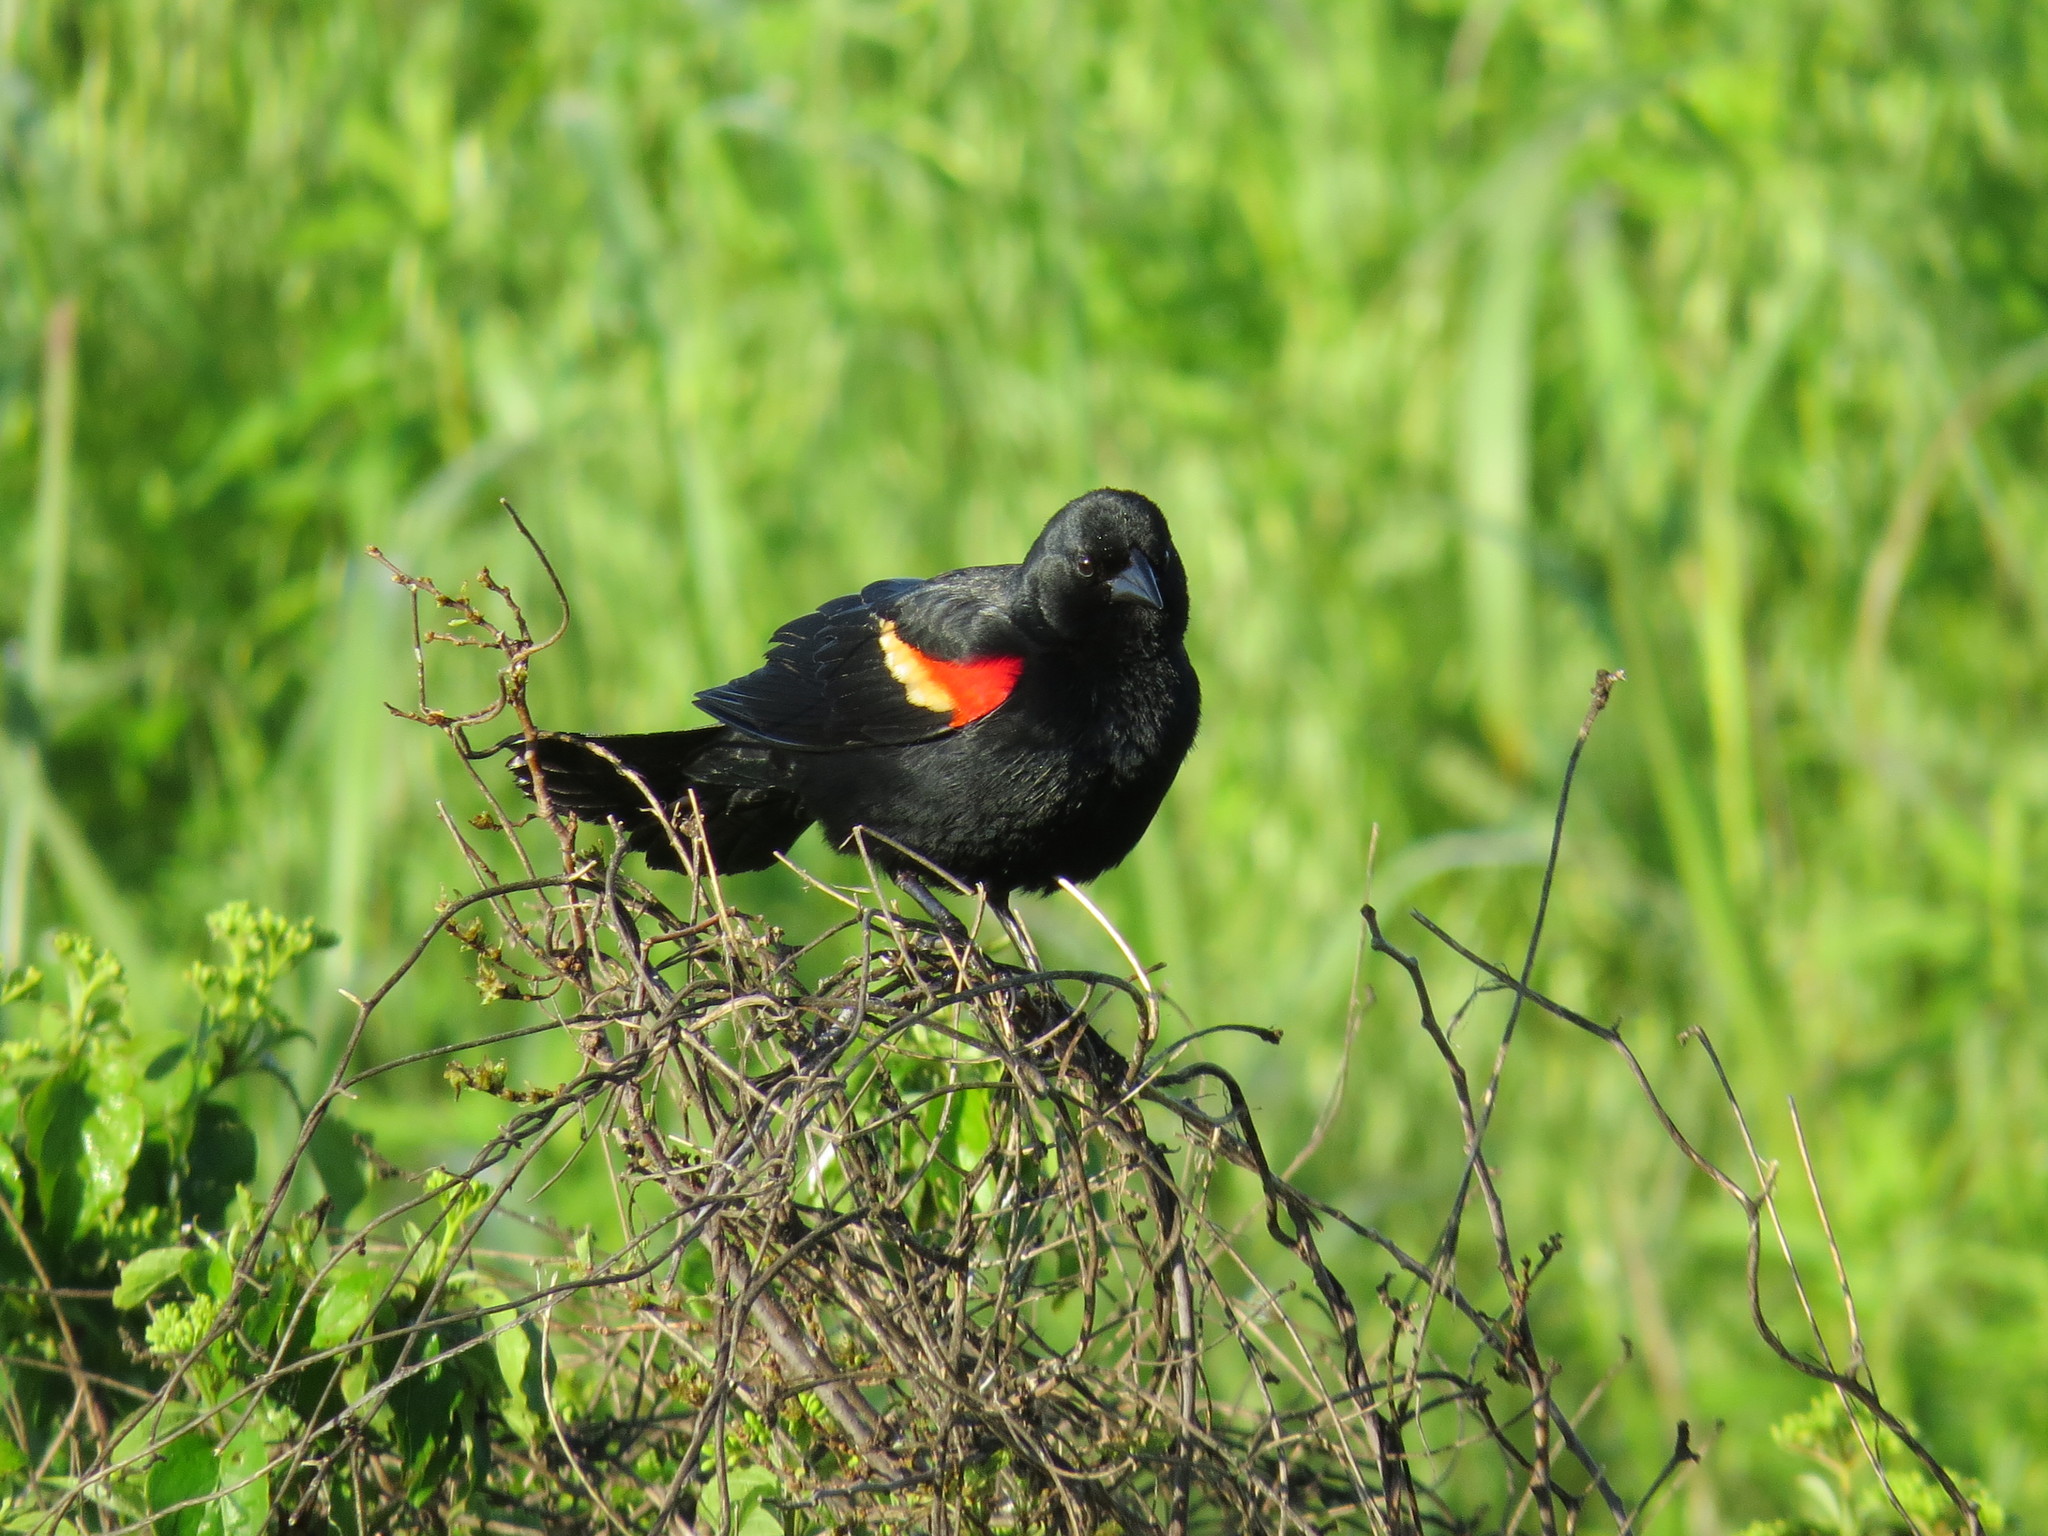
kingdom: Animalia
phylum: Chordata
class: Aves
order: Passeriformes
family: Icteridae
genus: Agelaius
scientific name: Agelaius phoeniceus
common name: Red-winged blackbird
